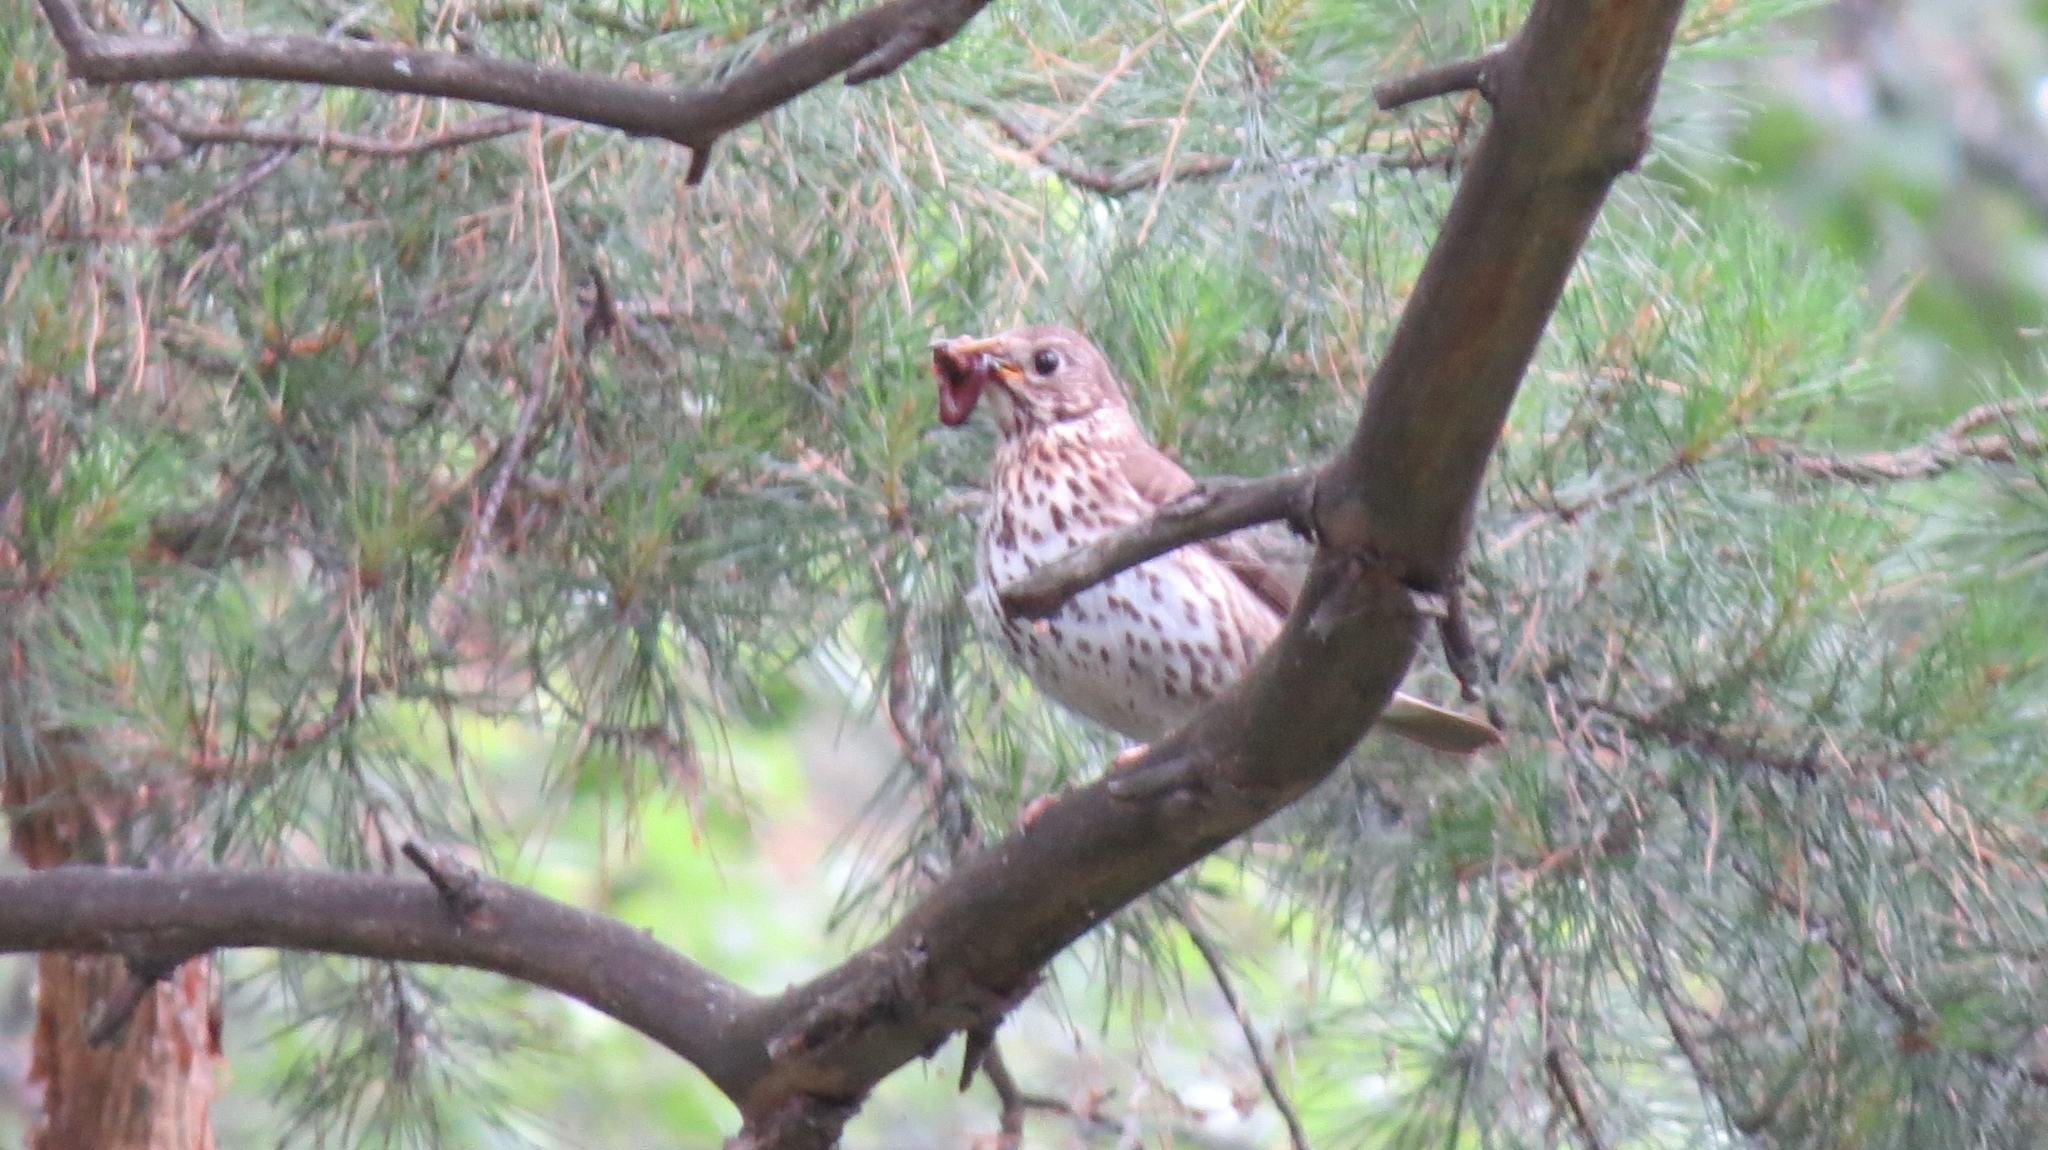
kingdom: Animalia
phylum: Chordata
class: Aves
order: Passeriformes
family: Turdidae
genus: Turdus
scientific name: Turdus philomelos
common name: Song thrush
